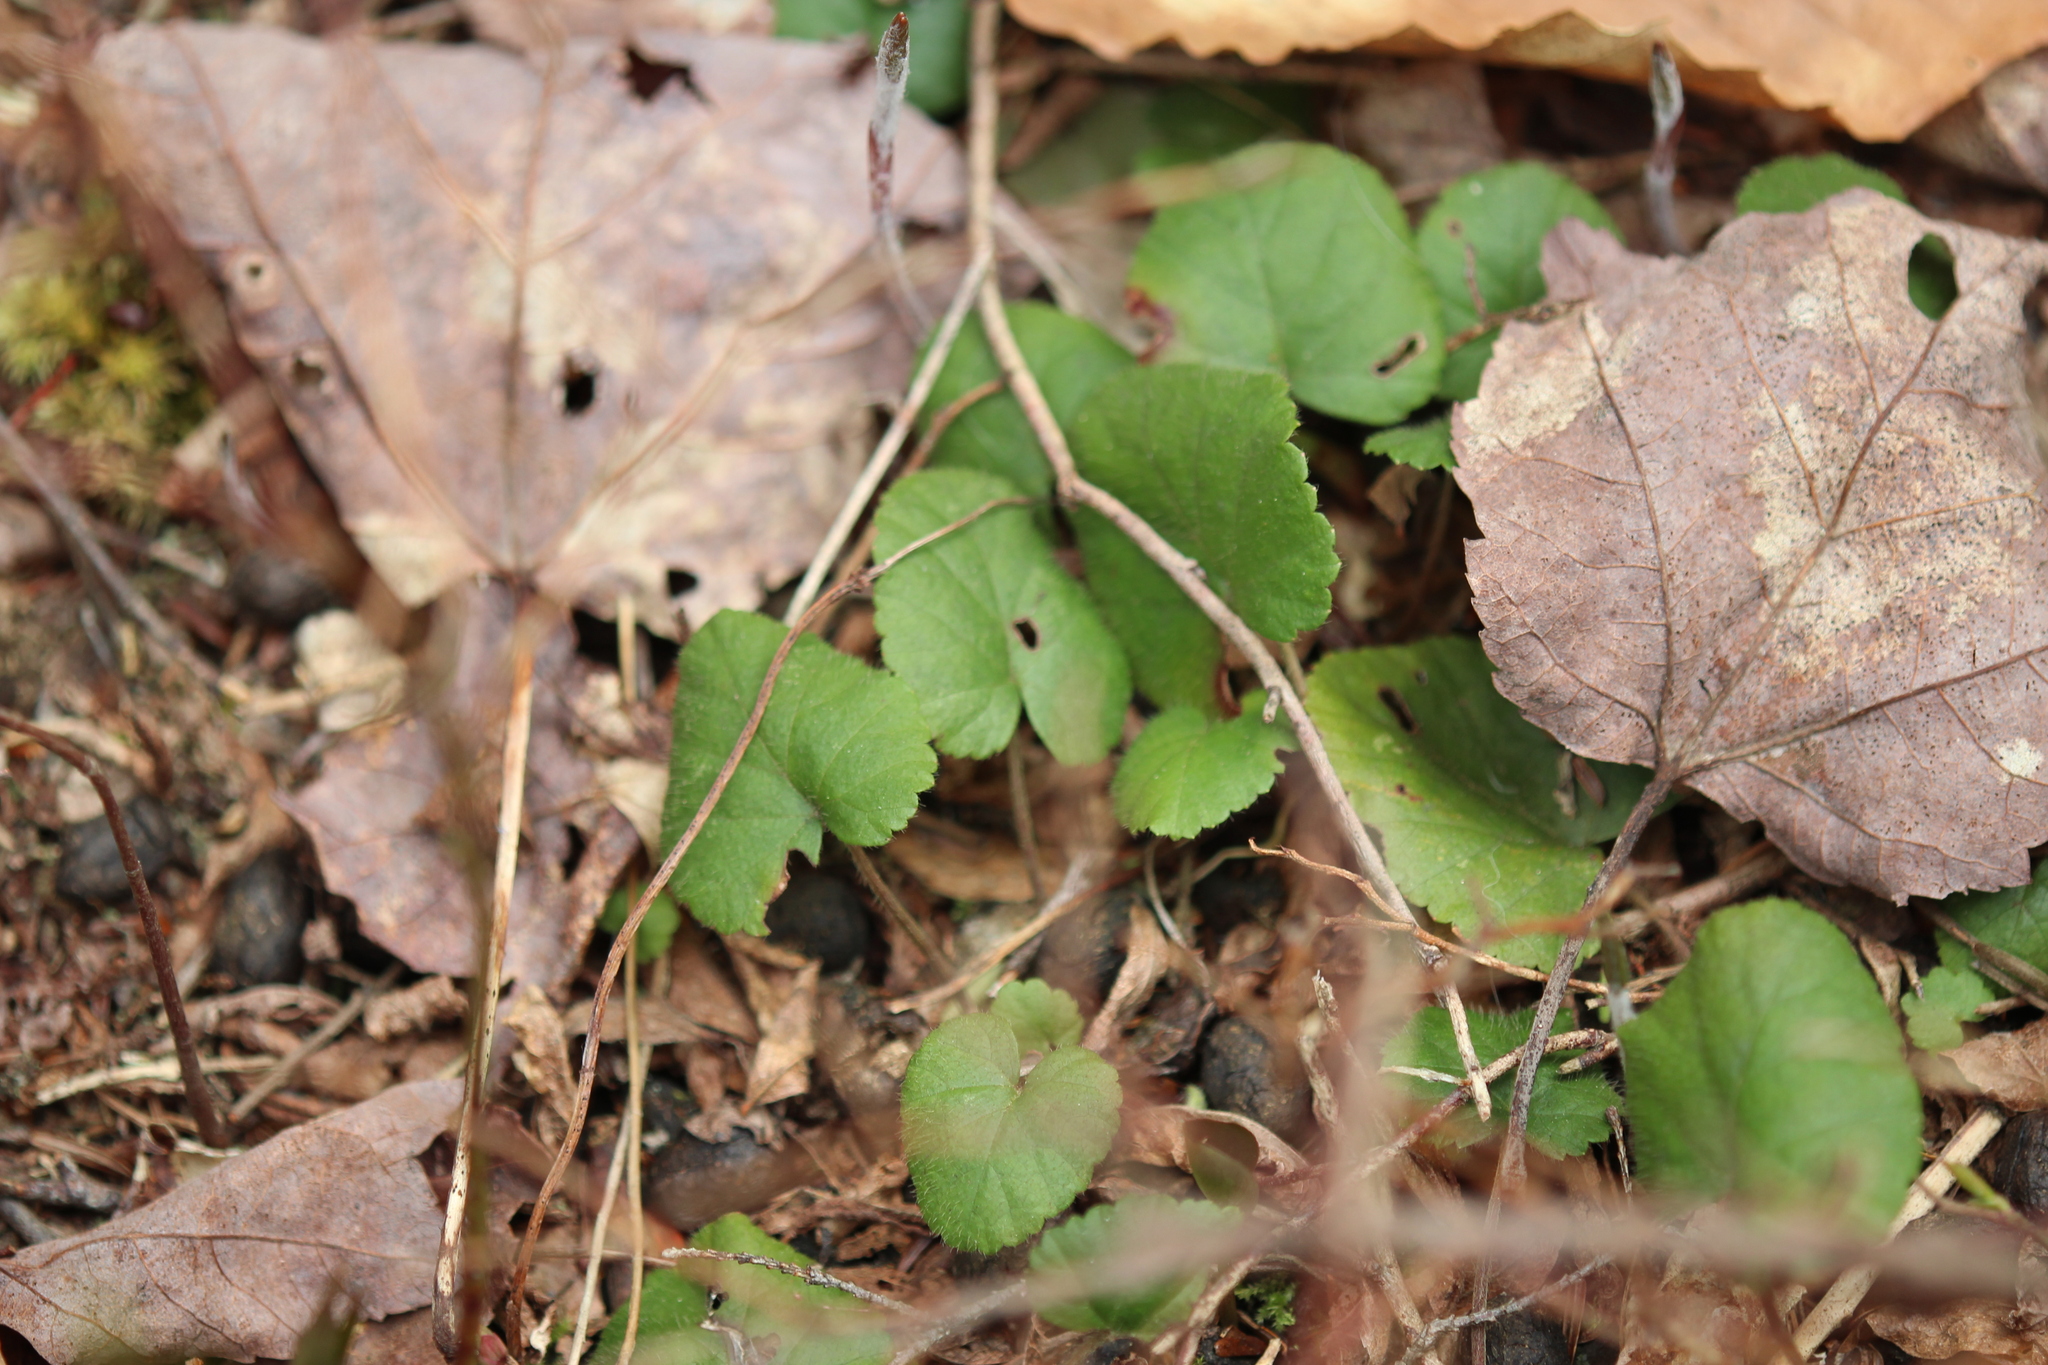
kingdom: Plantae
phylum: Tracheophyta
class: Magnoliopsida
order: Rosales
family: Rosaceae
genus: Dalibarda
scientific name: Dalibarda repens
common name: Dewdrop
